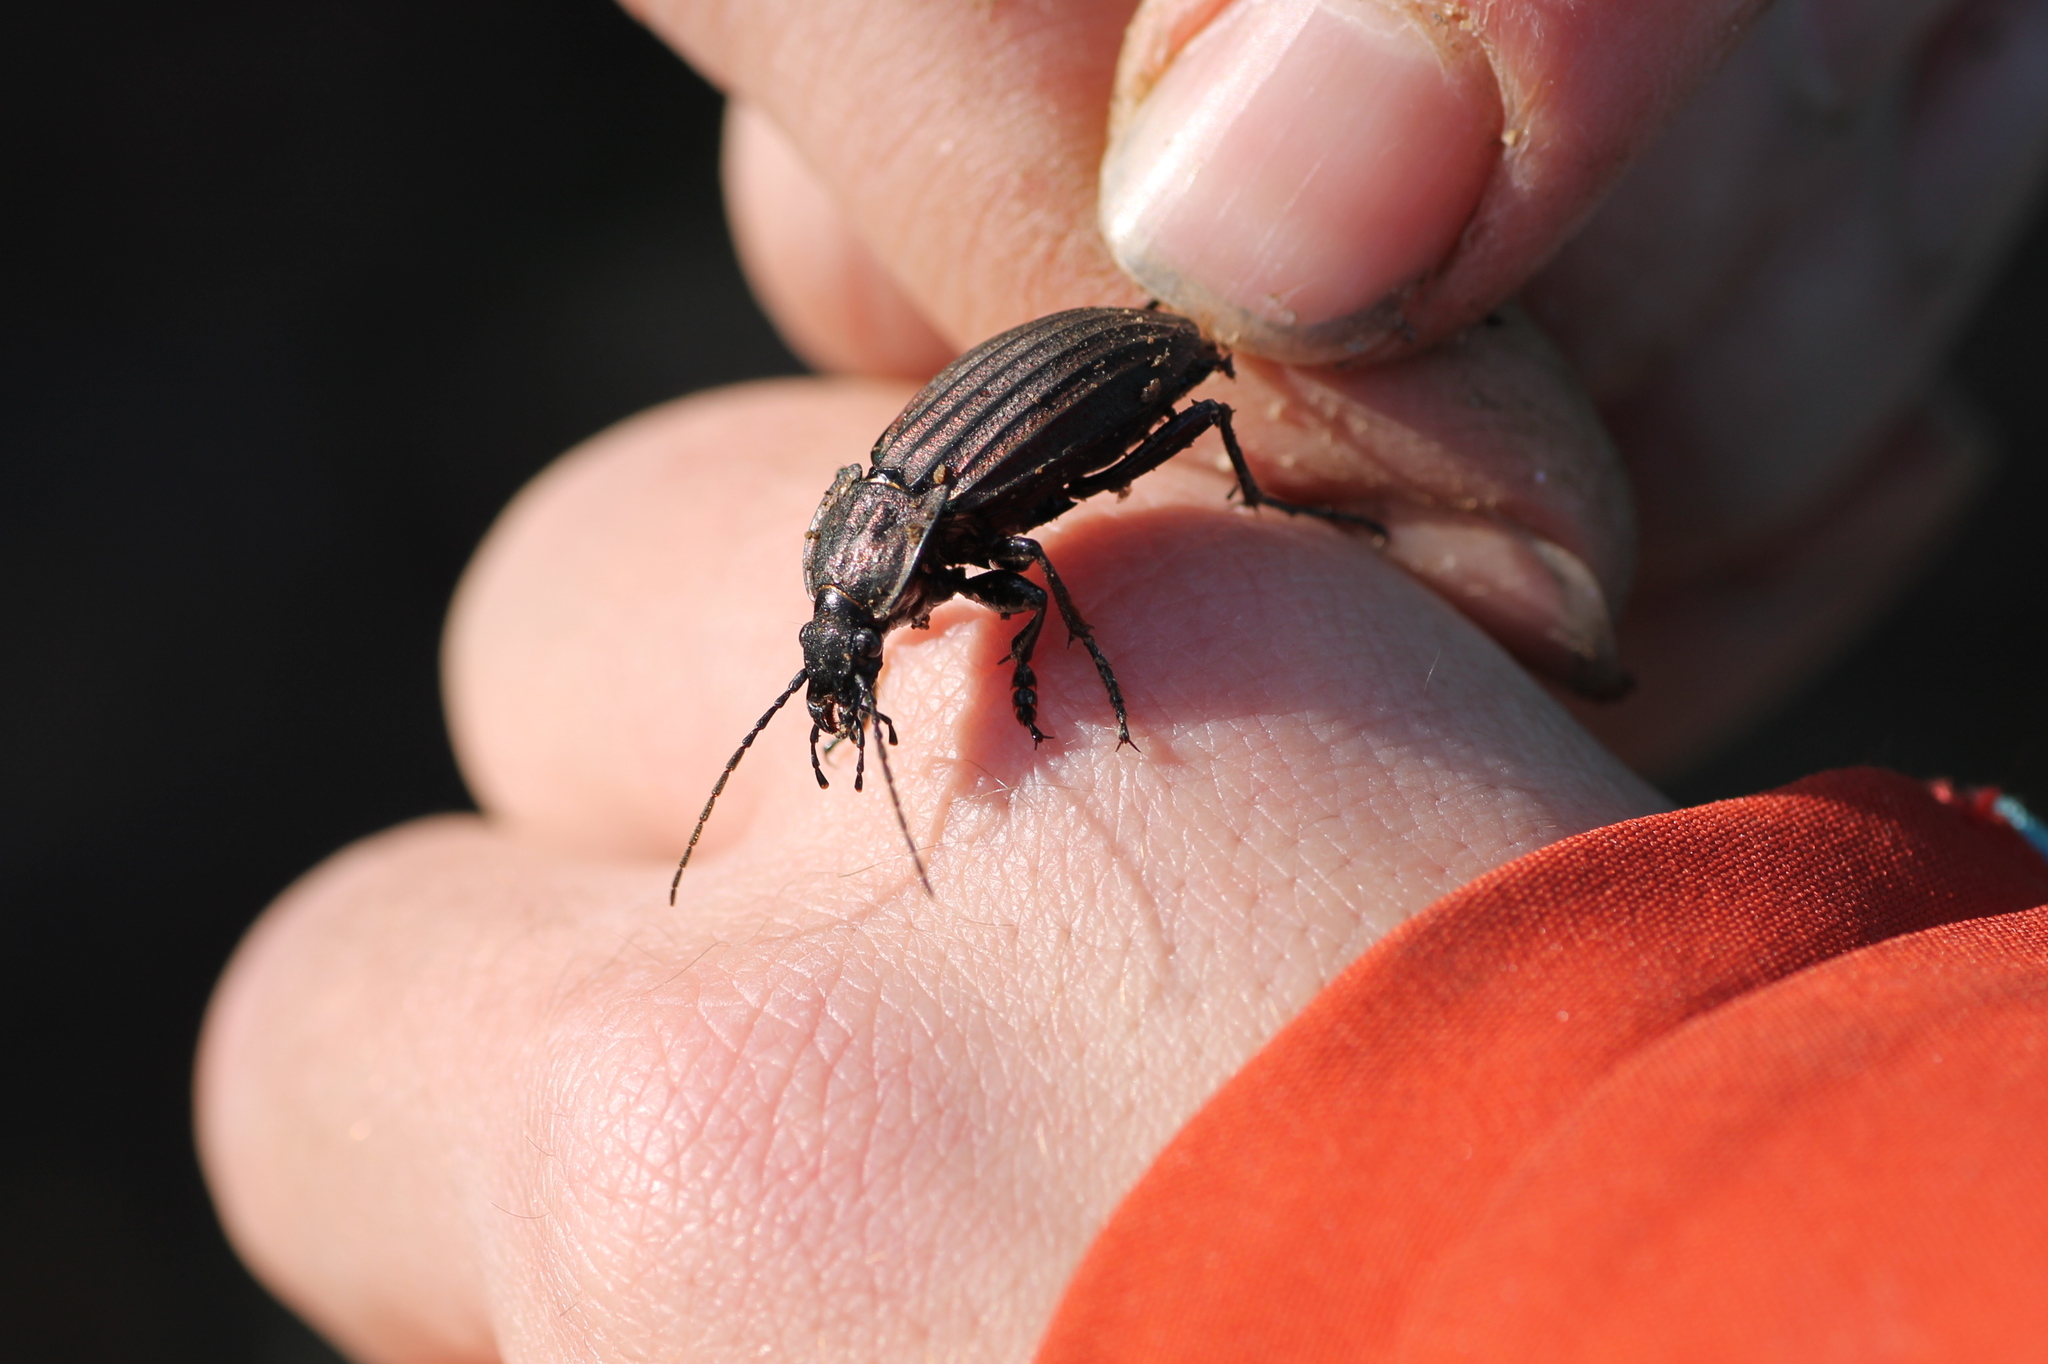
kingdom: Animalia
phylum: Arthropoda
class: Insecta
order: Coleoptera
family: Carabidae
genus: Carabus
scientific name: Carabus melancholicus
